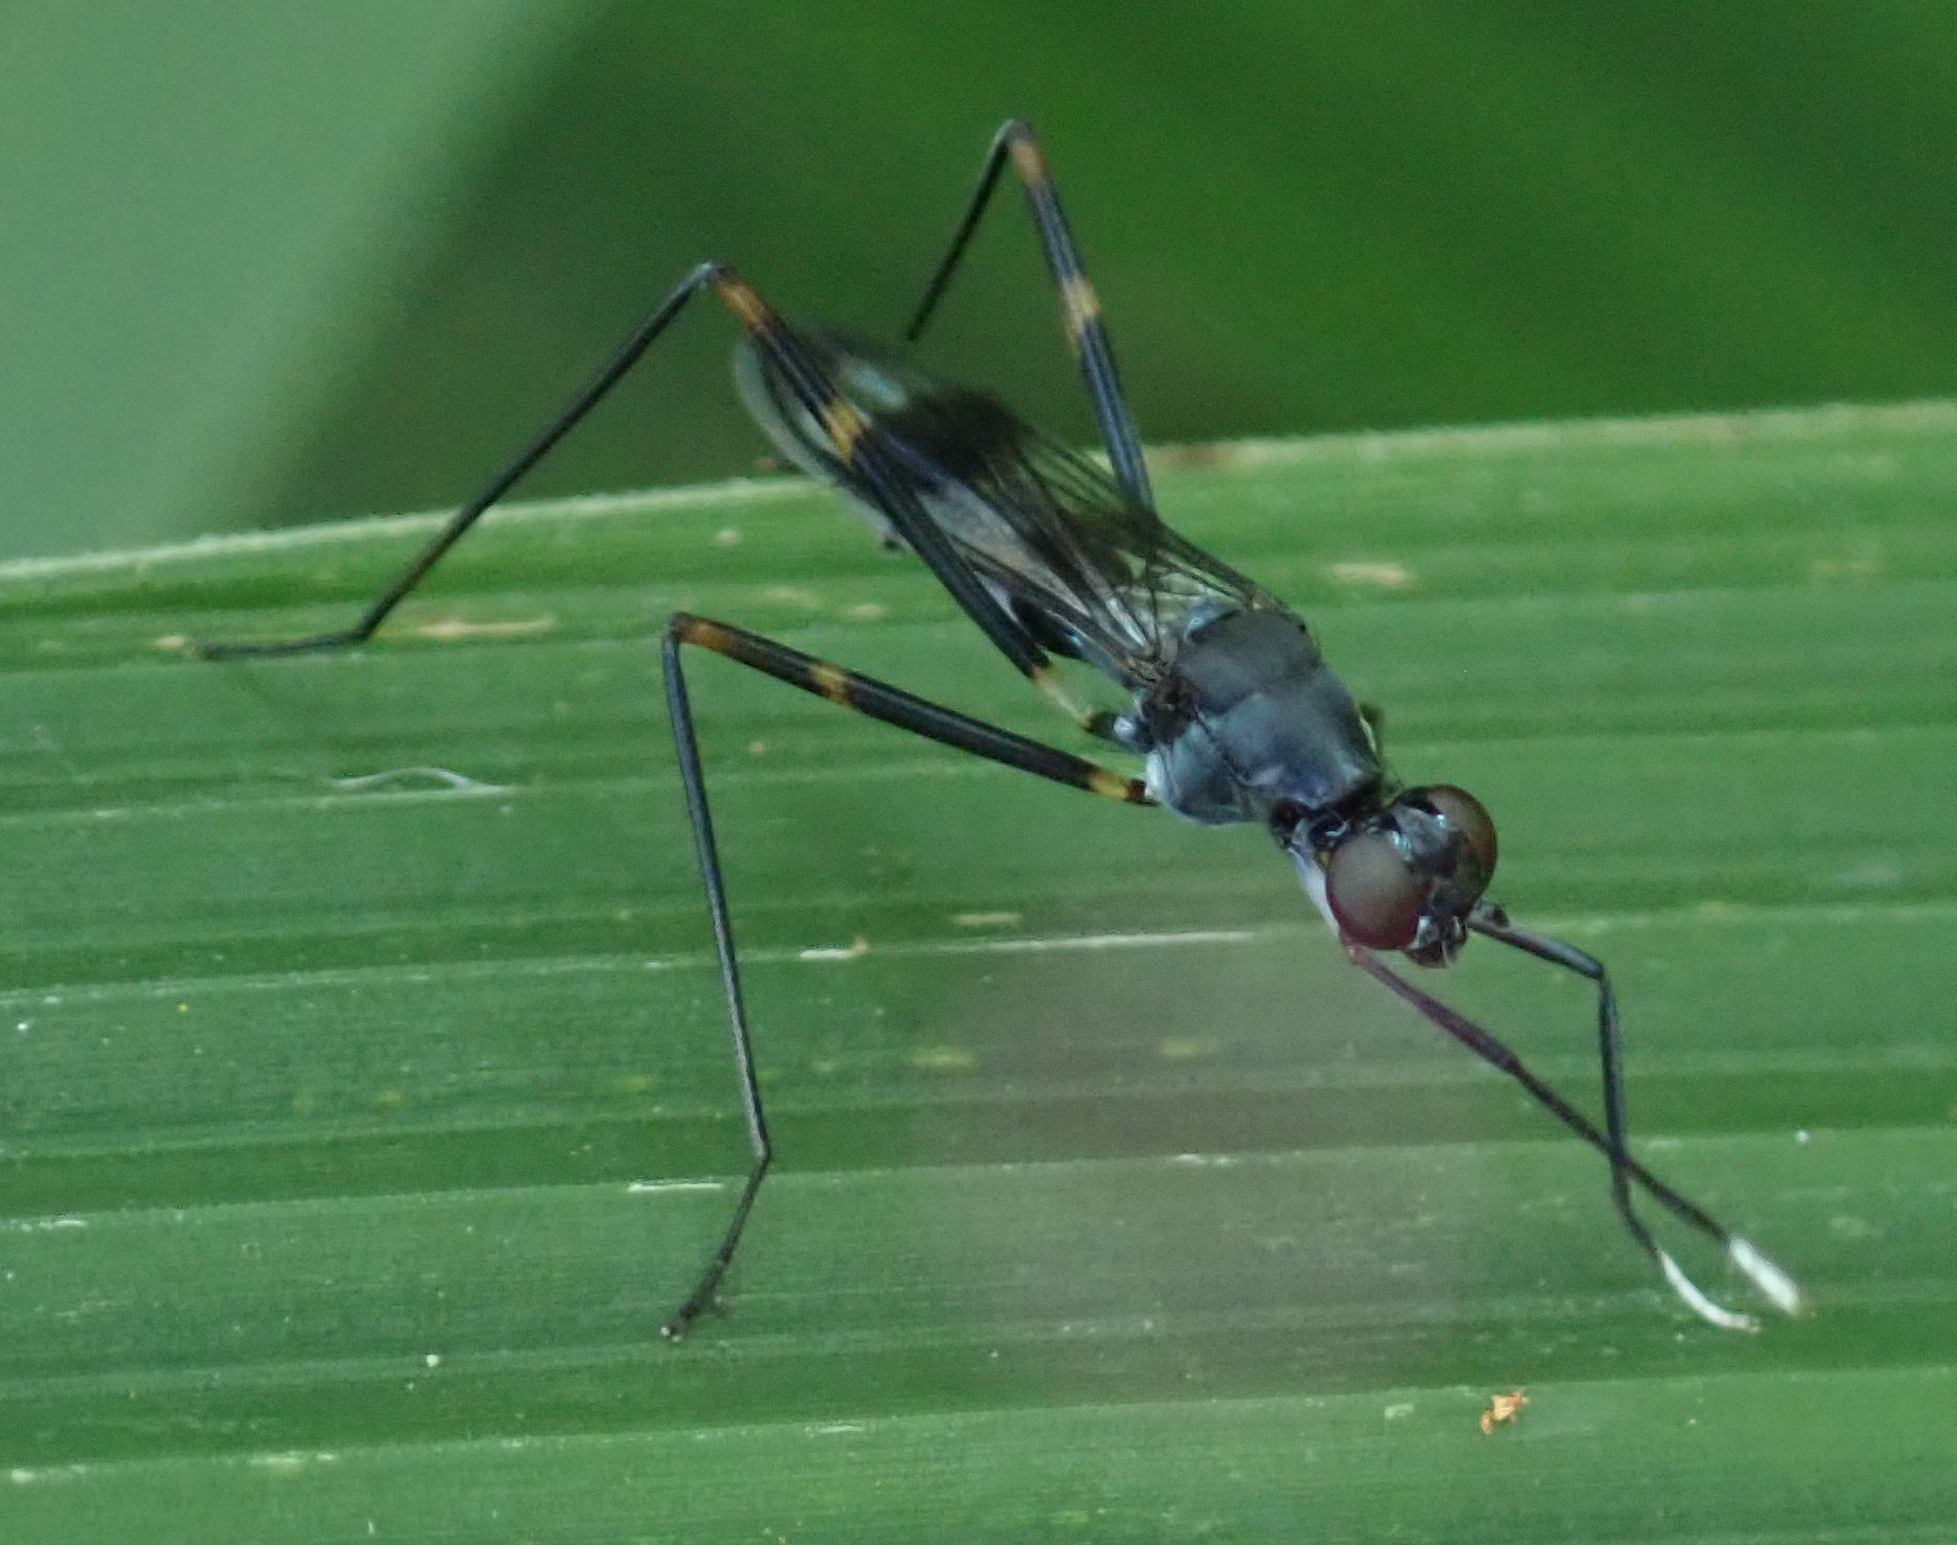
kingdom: Animalia
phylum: Arthropoda
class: Insecta
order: Diptera
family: Micropezidae
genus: Hybobata
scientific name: Hybobata
